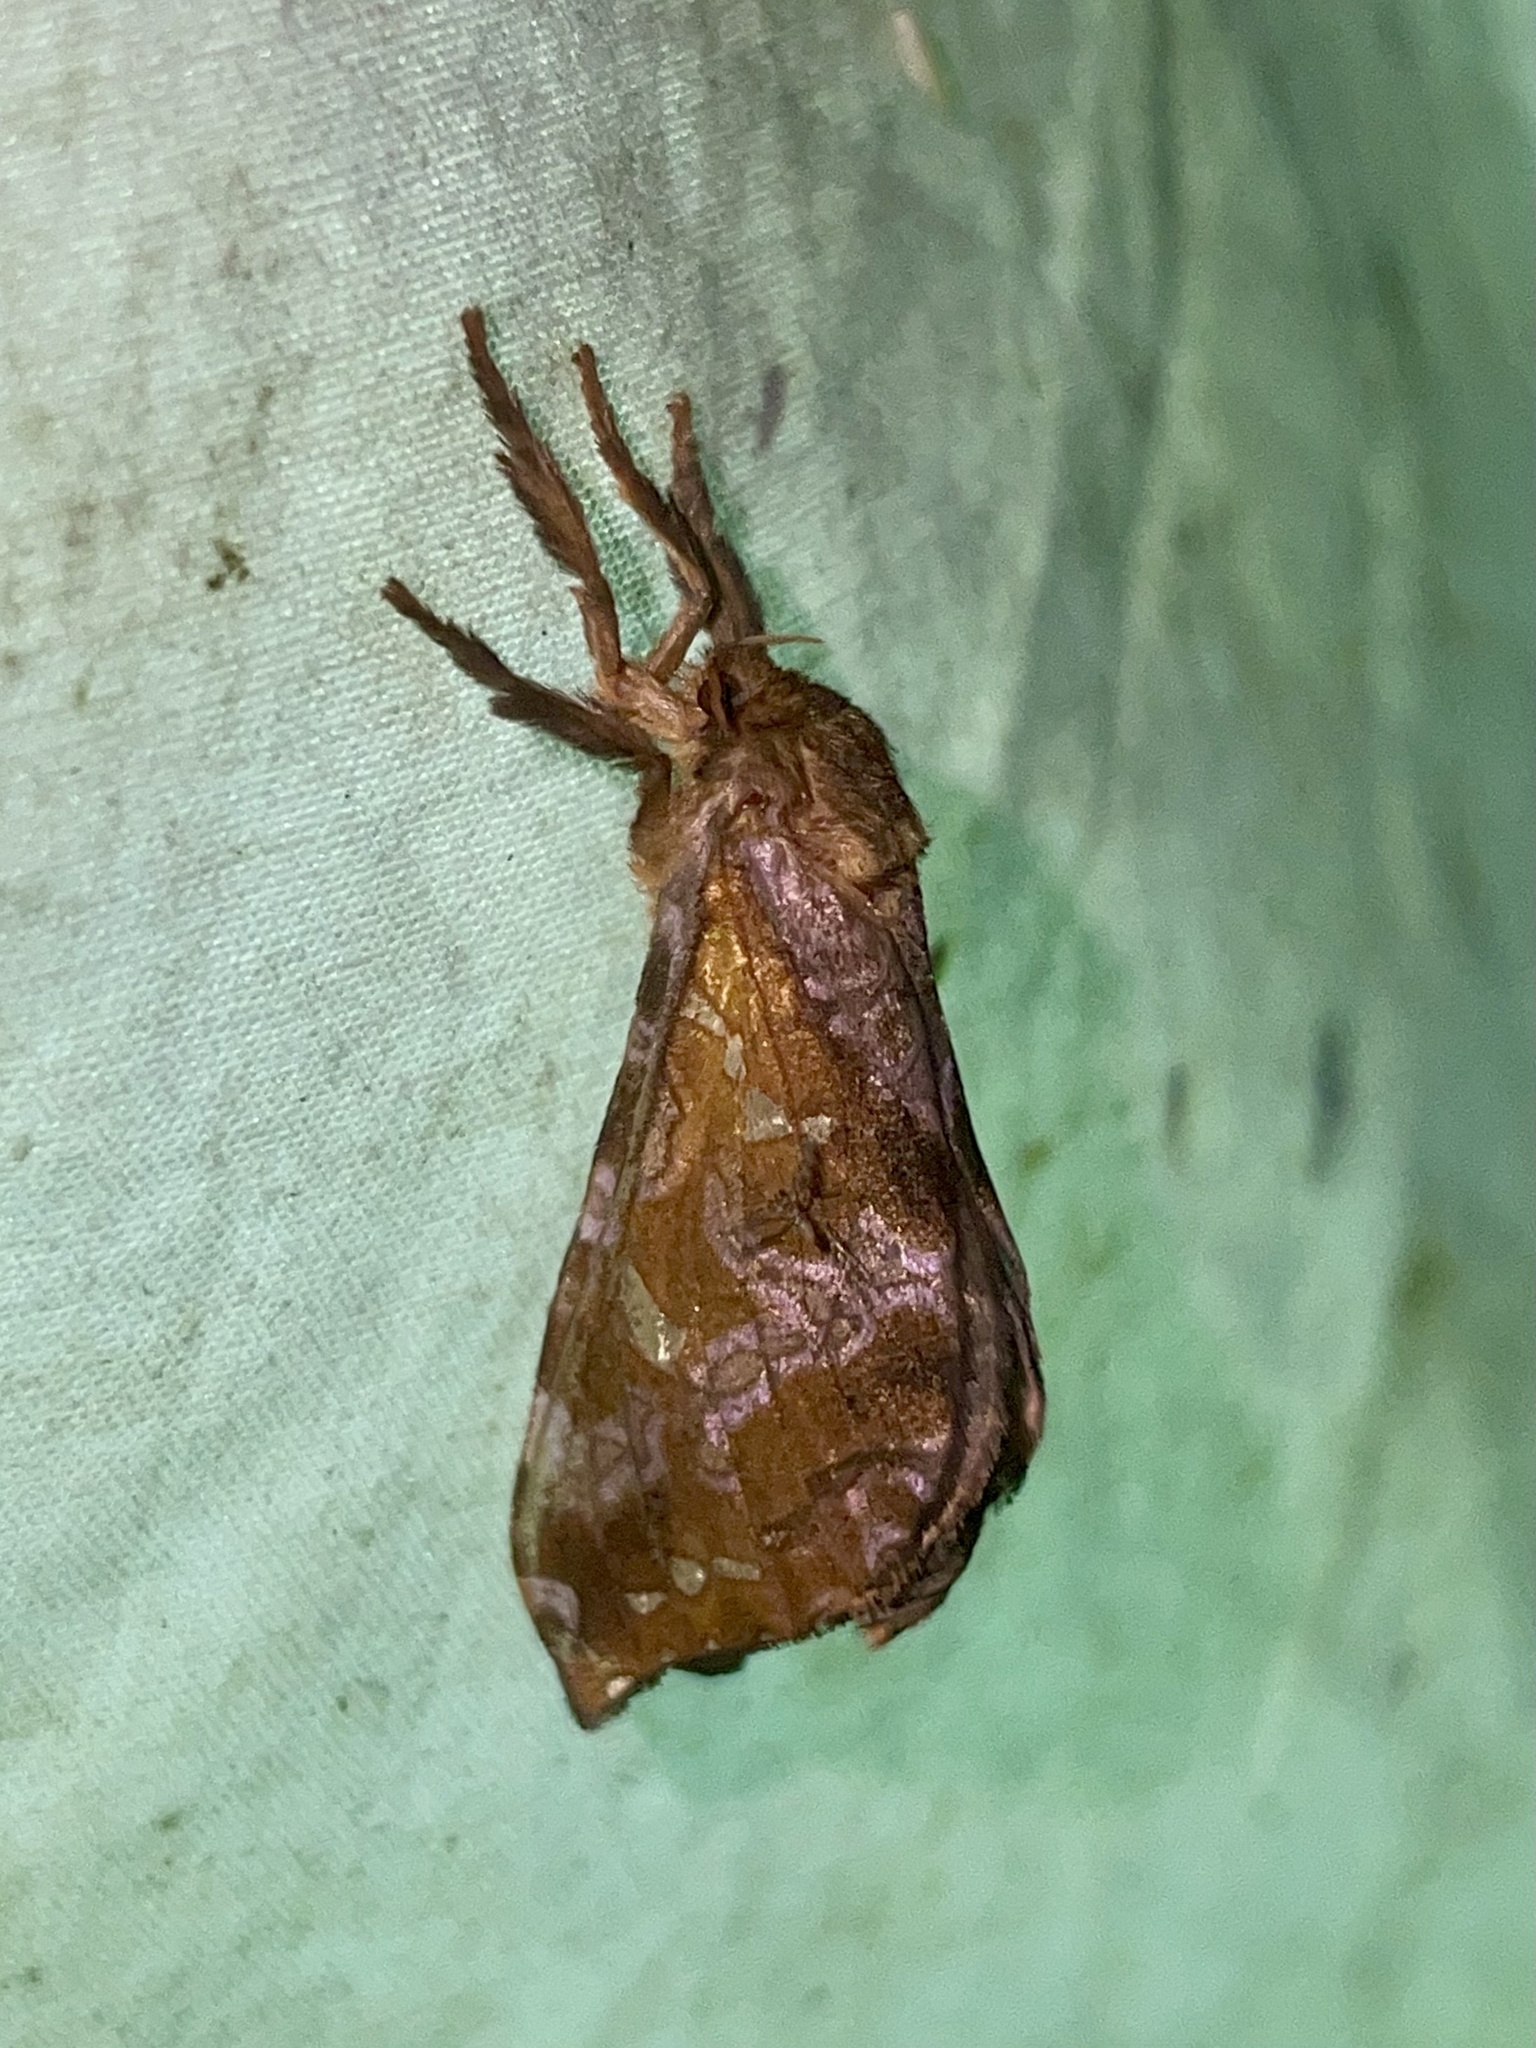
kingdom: Animalia
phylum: Arthropoda
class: Insecta
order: Lepidoptera
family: Hepialidae
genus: Sthenopis
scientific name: Sthenopis pretiosus
